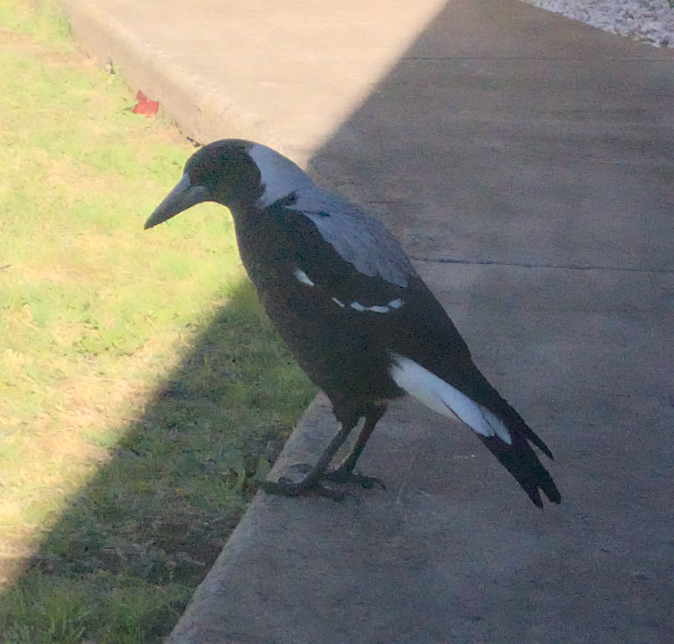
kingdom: Animalia
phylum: Chordata
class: Aves
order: Passeriformes
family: Cracticidae
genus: Gymnorhina
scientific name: Gymnorhina tibicen
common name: Australian magpie
